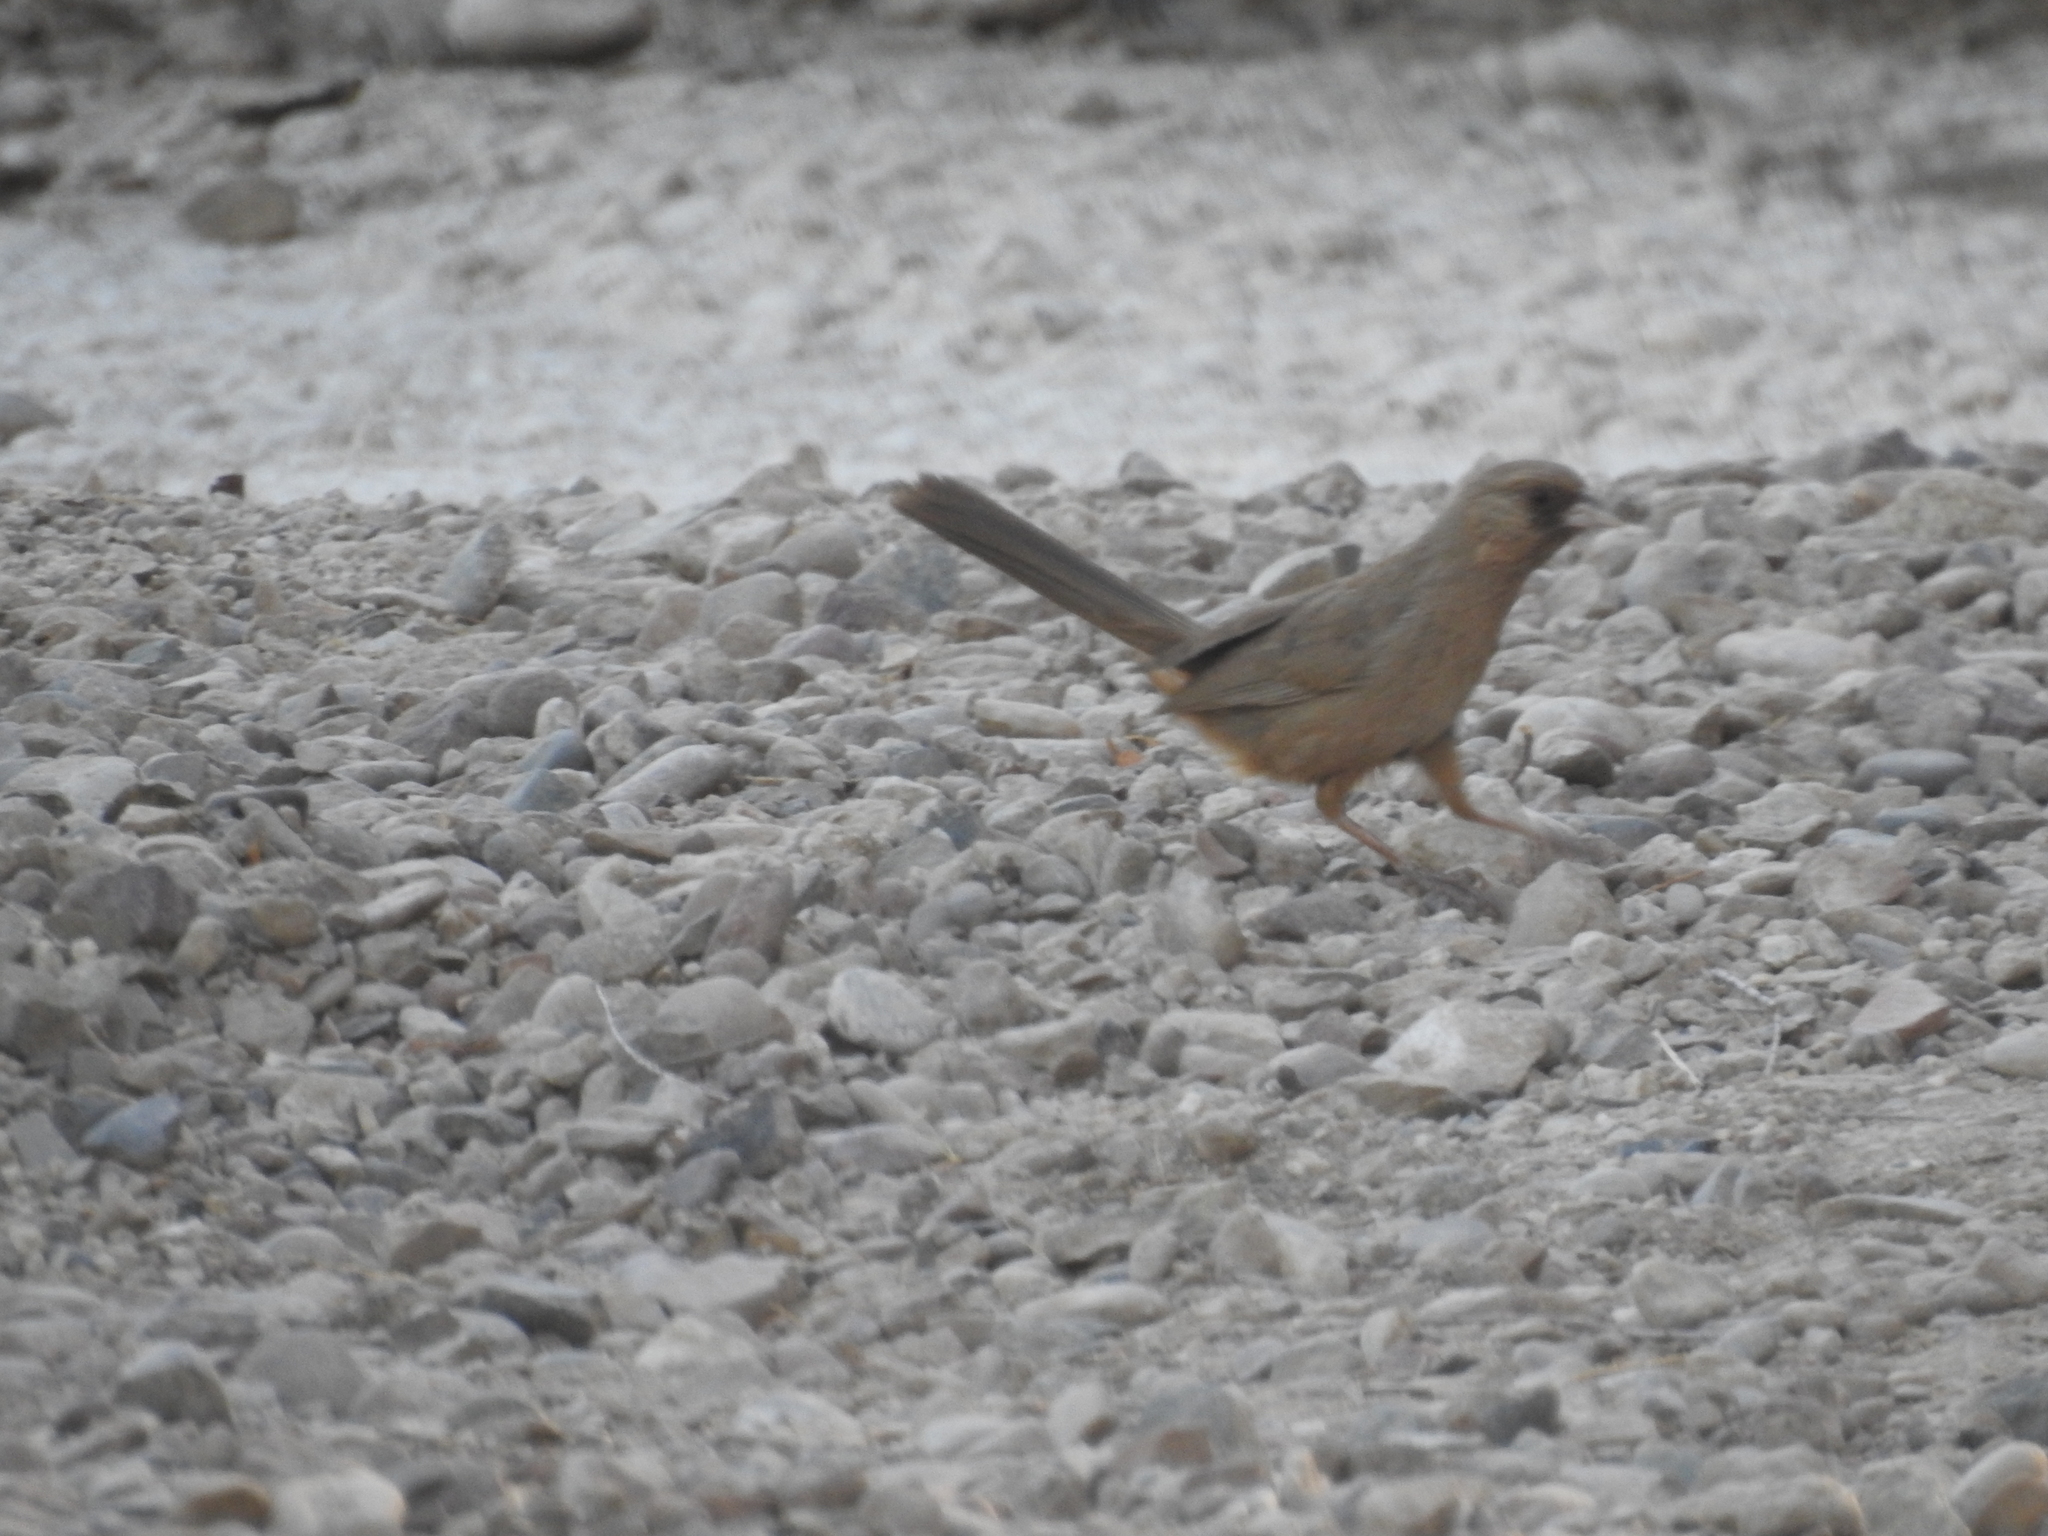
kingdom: Animalia
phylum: Chordata
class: Aves
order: Passeriformes
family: Passerellidae
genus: Melozone
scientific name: Melozone aberti
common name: Abert's towhee
